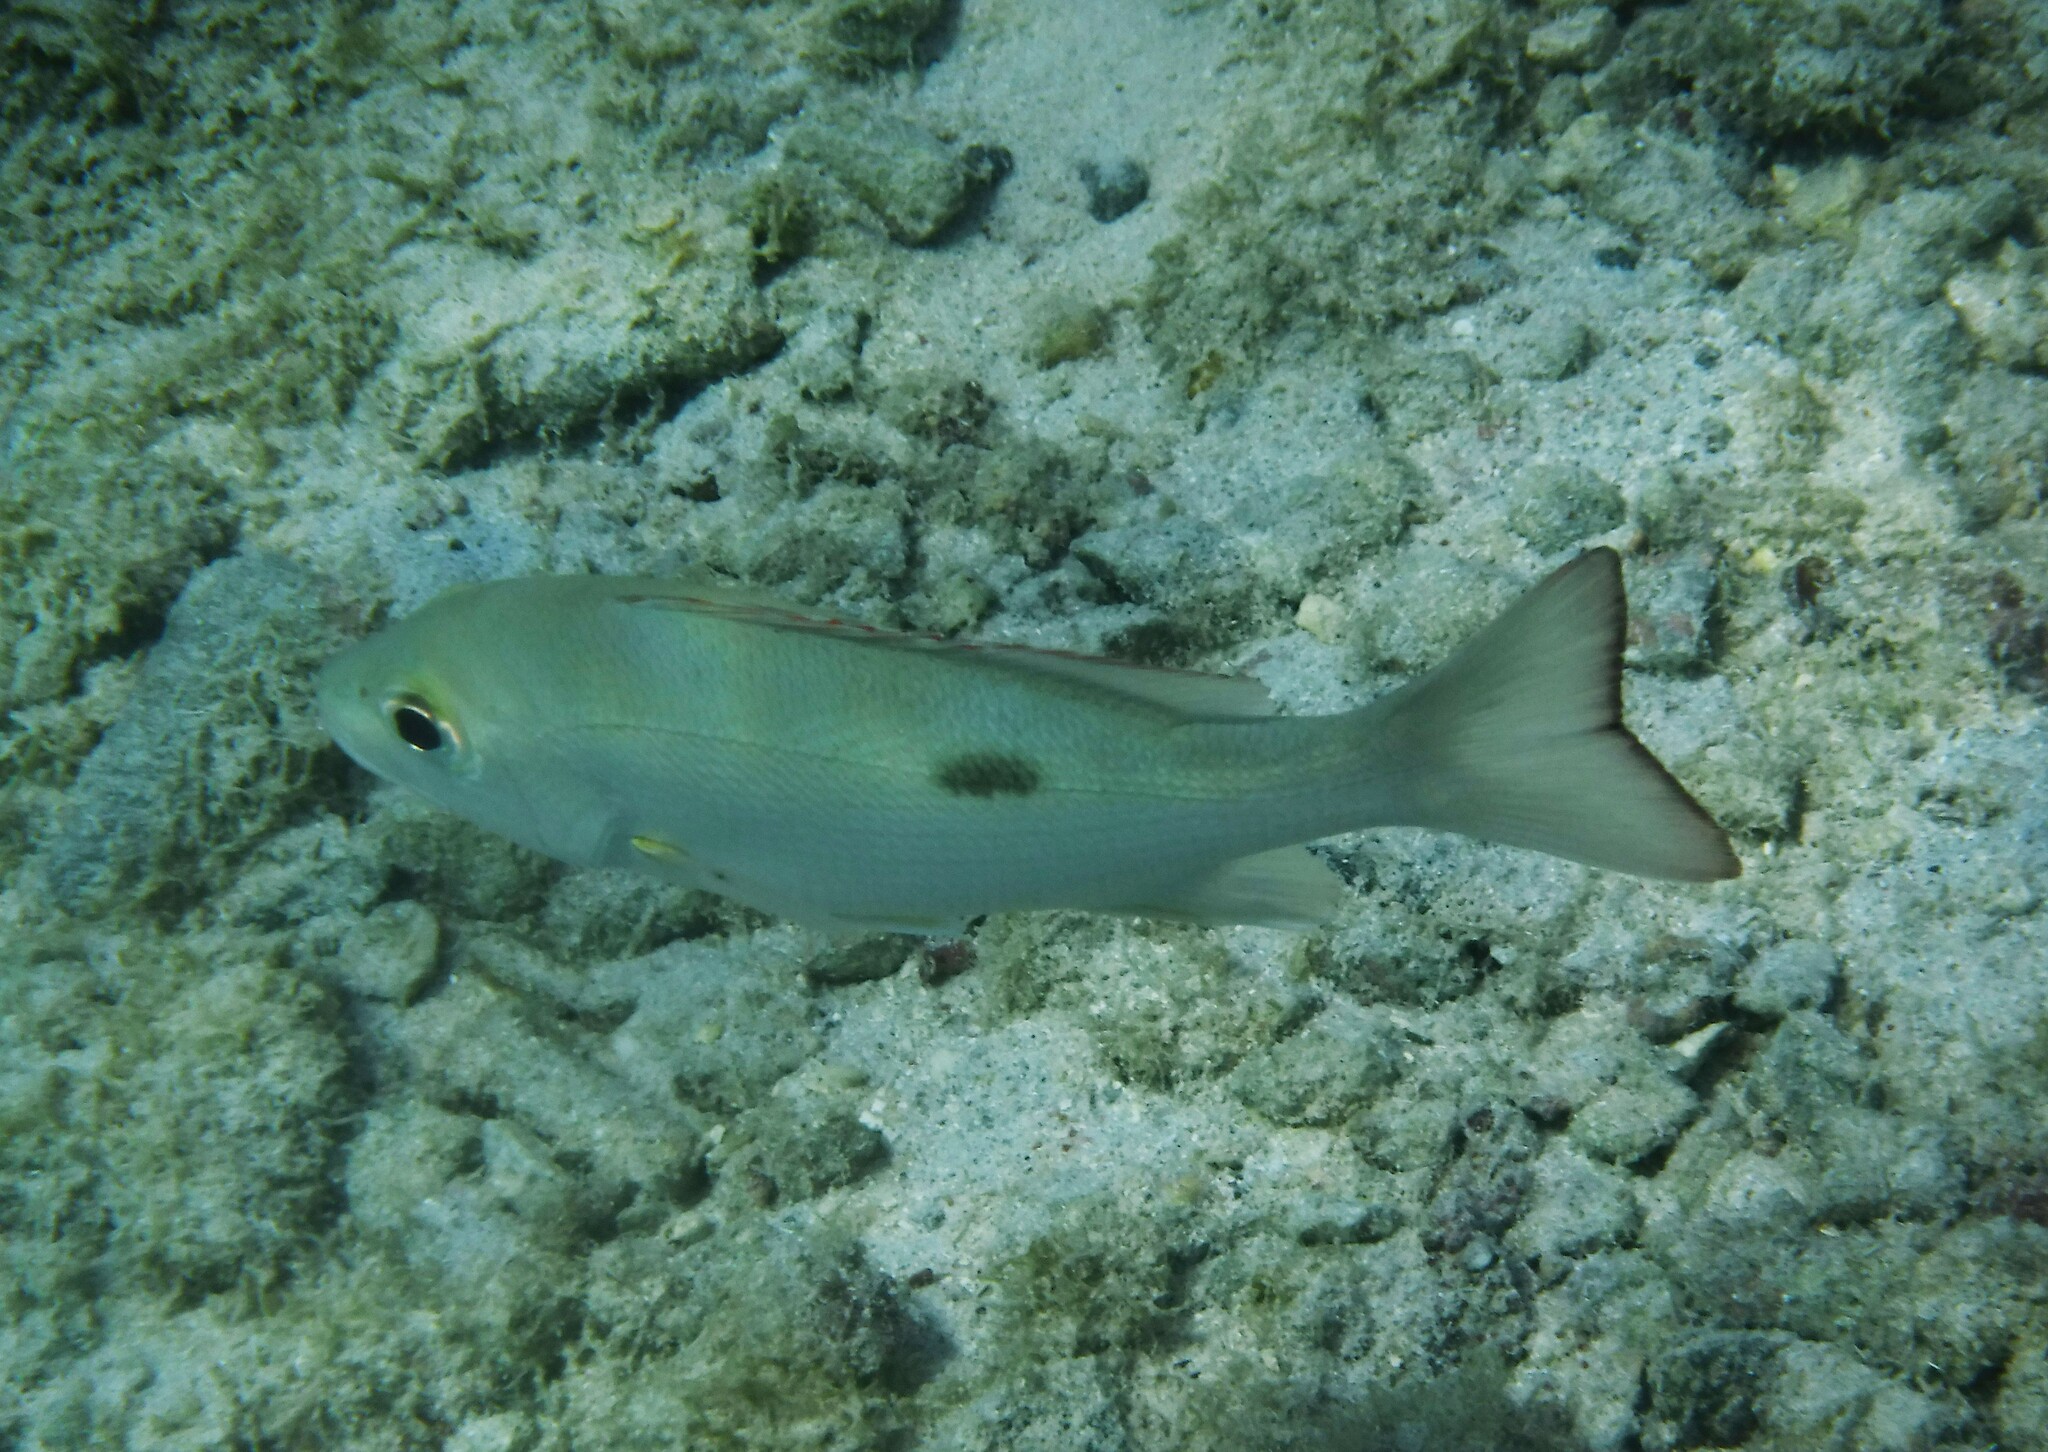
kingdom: Animalia
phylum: Chordata
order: Perciformes
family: Lutjanidae
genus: Lutjanus
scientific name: Lutjanus synagris
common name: Lane snapper
